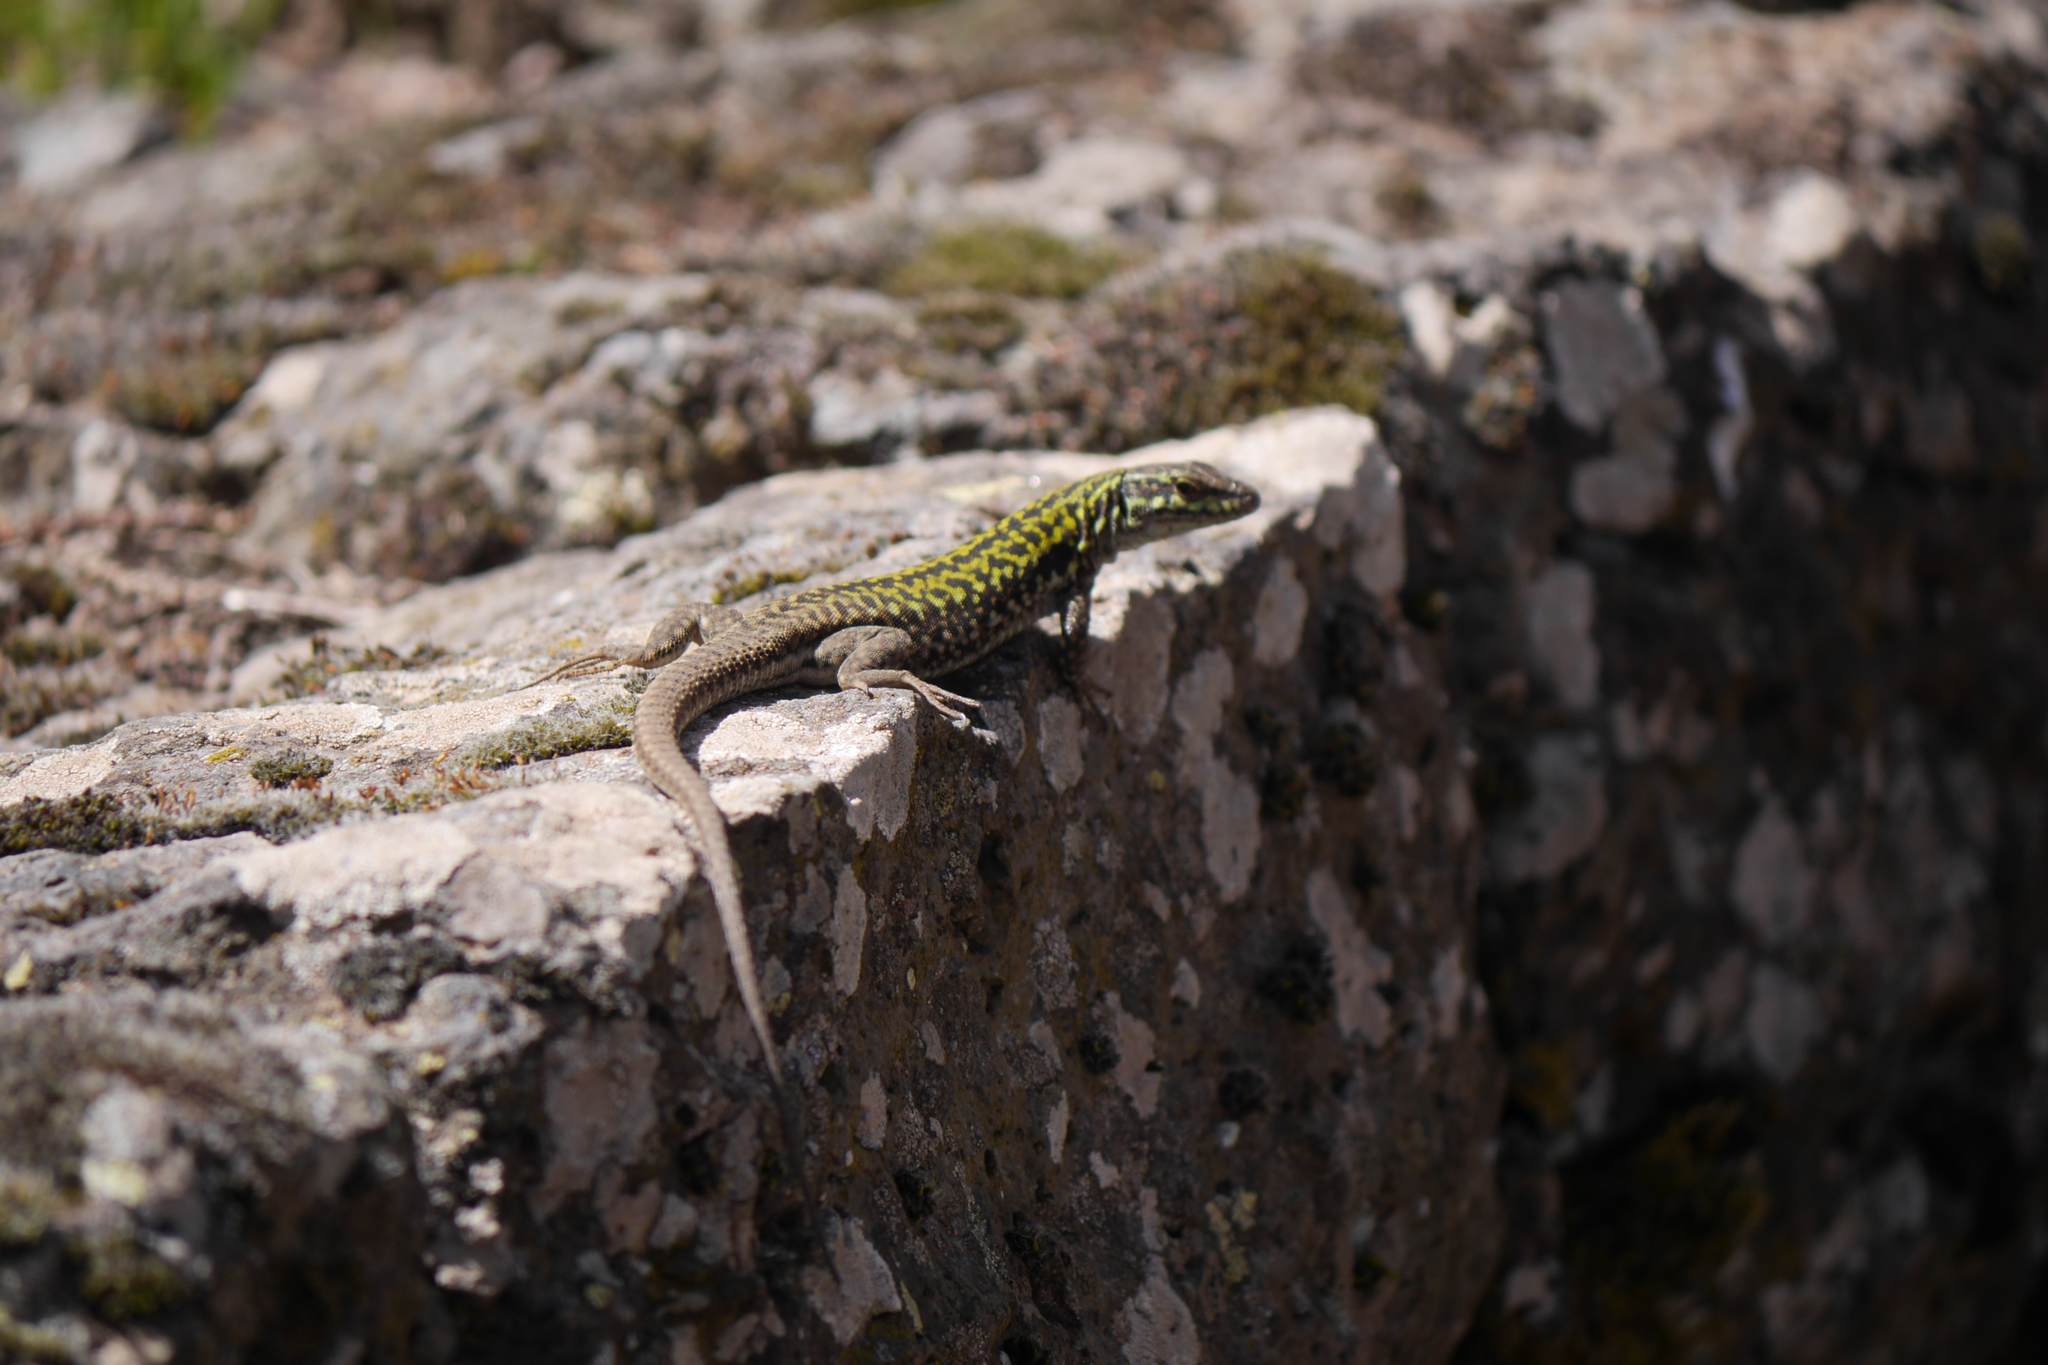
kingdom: Animalia
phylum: Chordata
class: Squamata
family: Lacertidae
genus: Podarcis
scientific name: Podarcis siculus
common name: Italian wall lizard
